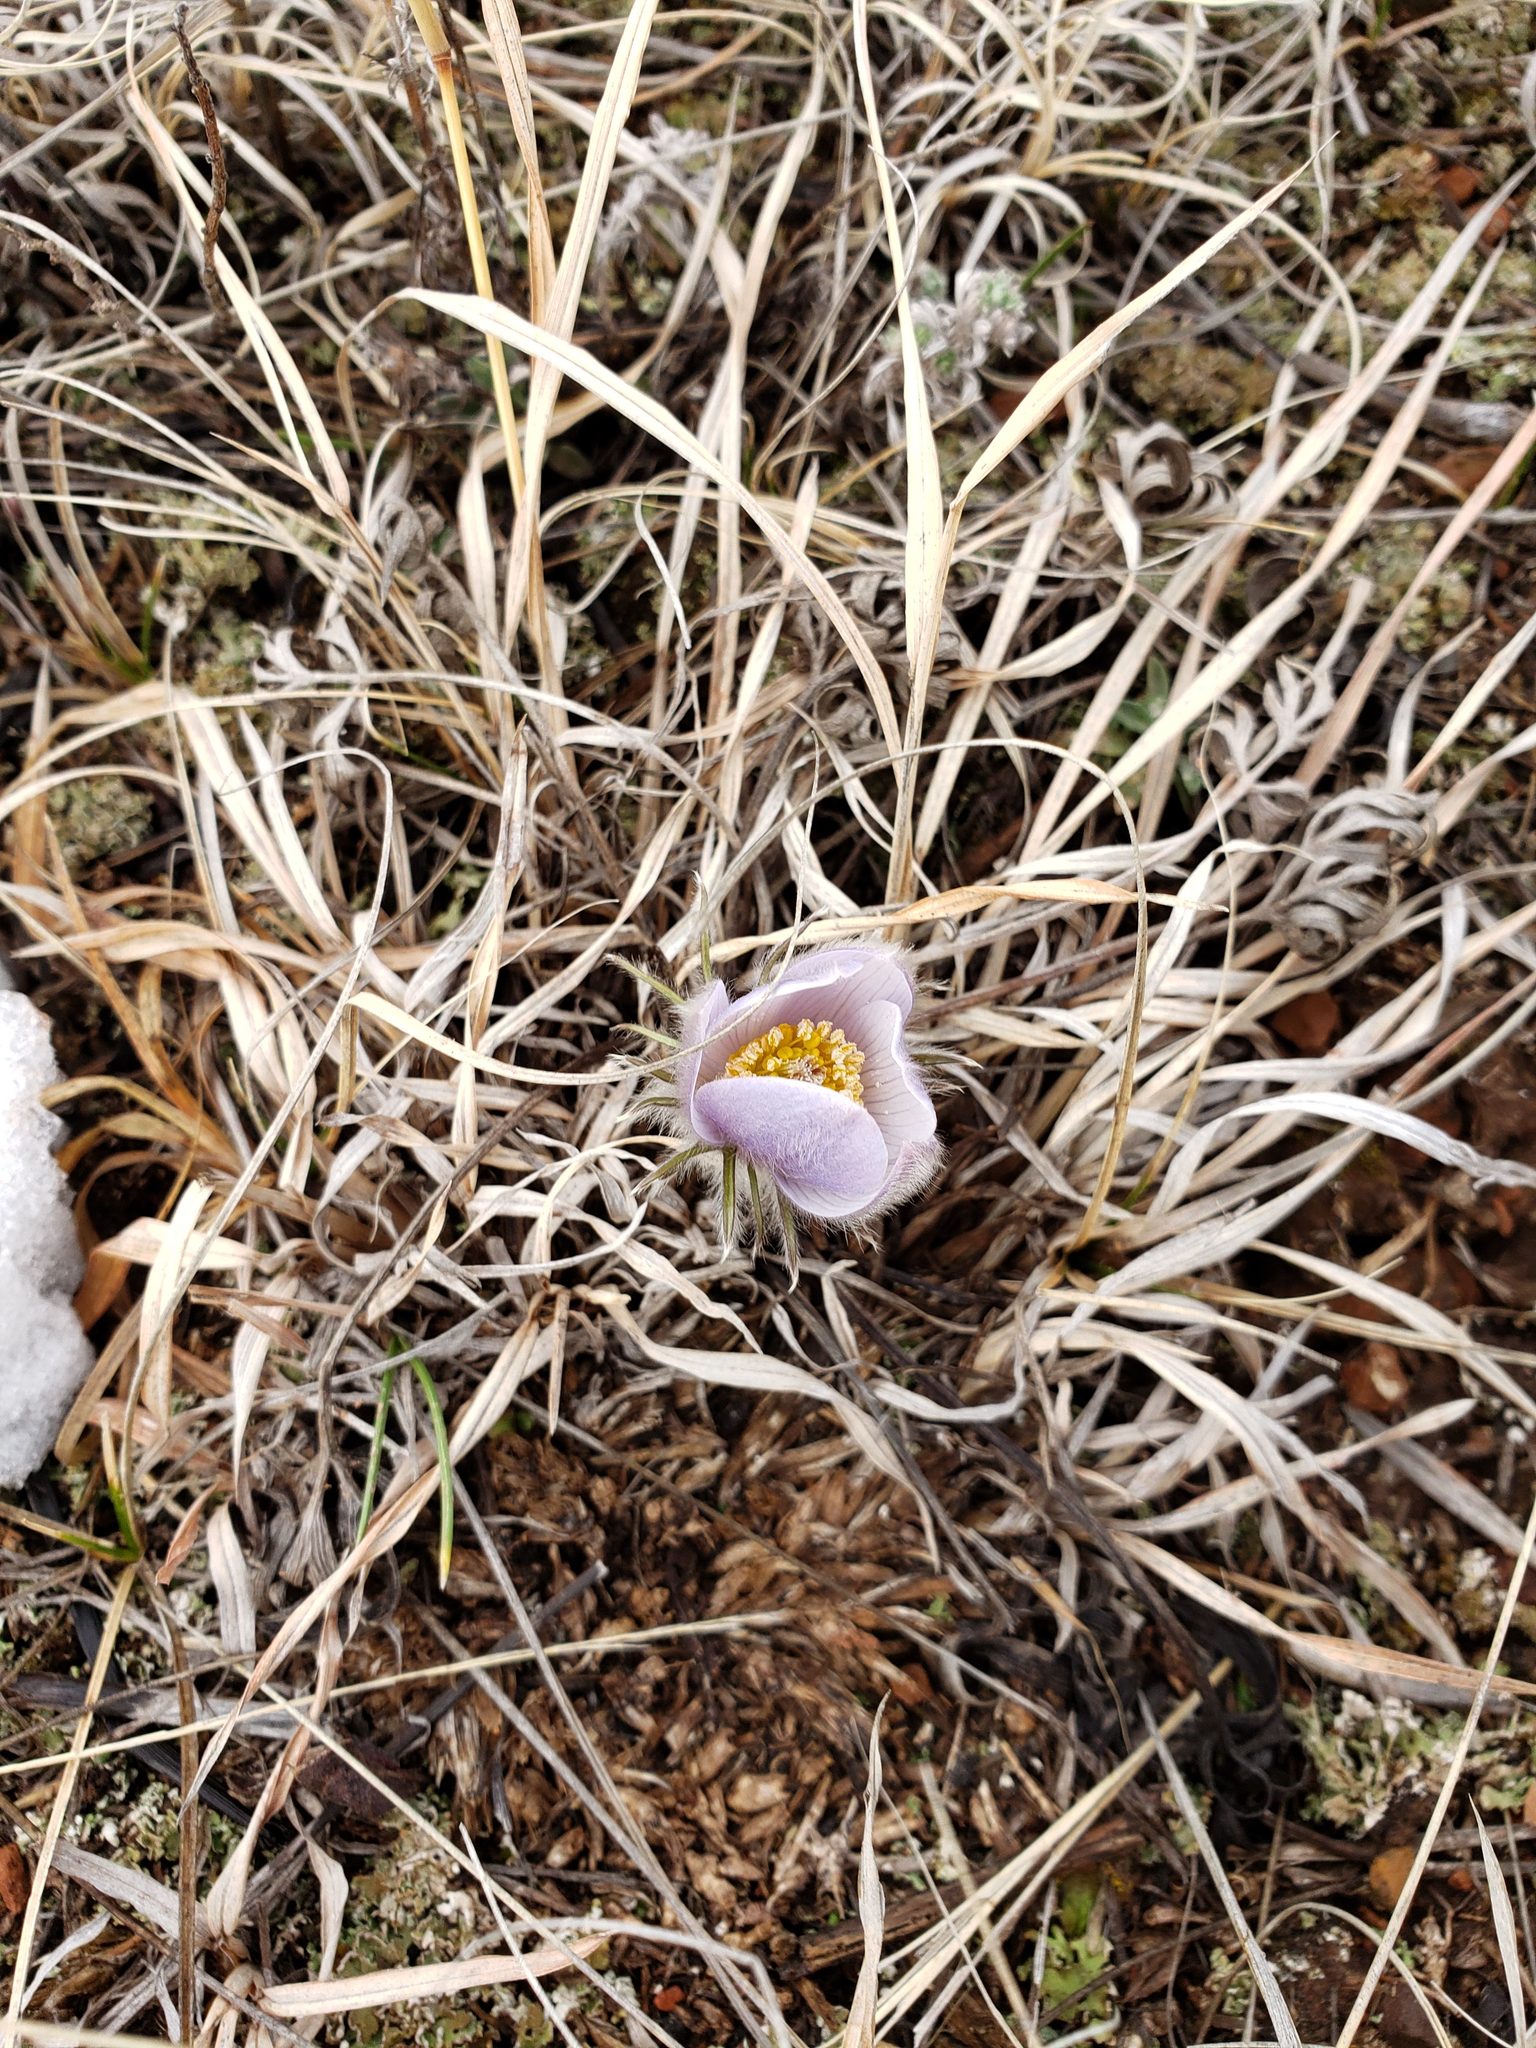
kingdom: Plantae
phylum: Tracheophyta
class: Magnoliopsida
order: Ranunculales
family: Ranunculaceae
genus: Pulsatilla
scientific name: Pulsatilla nuttalliana
